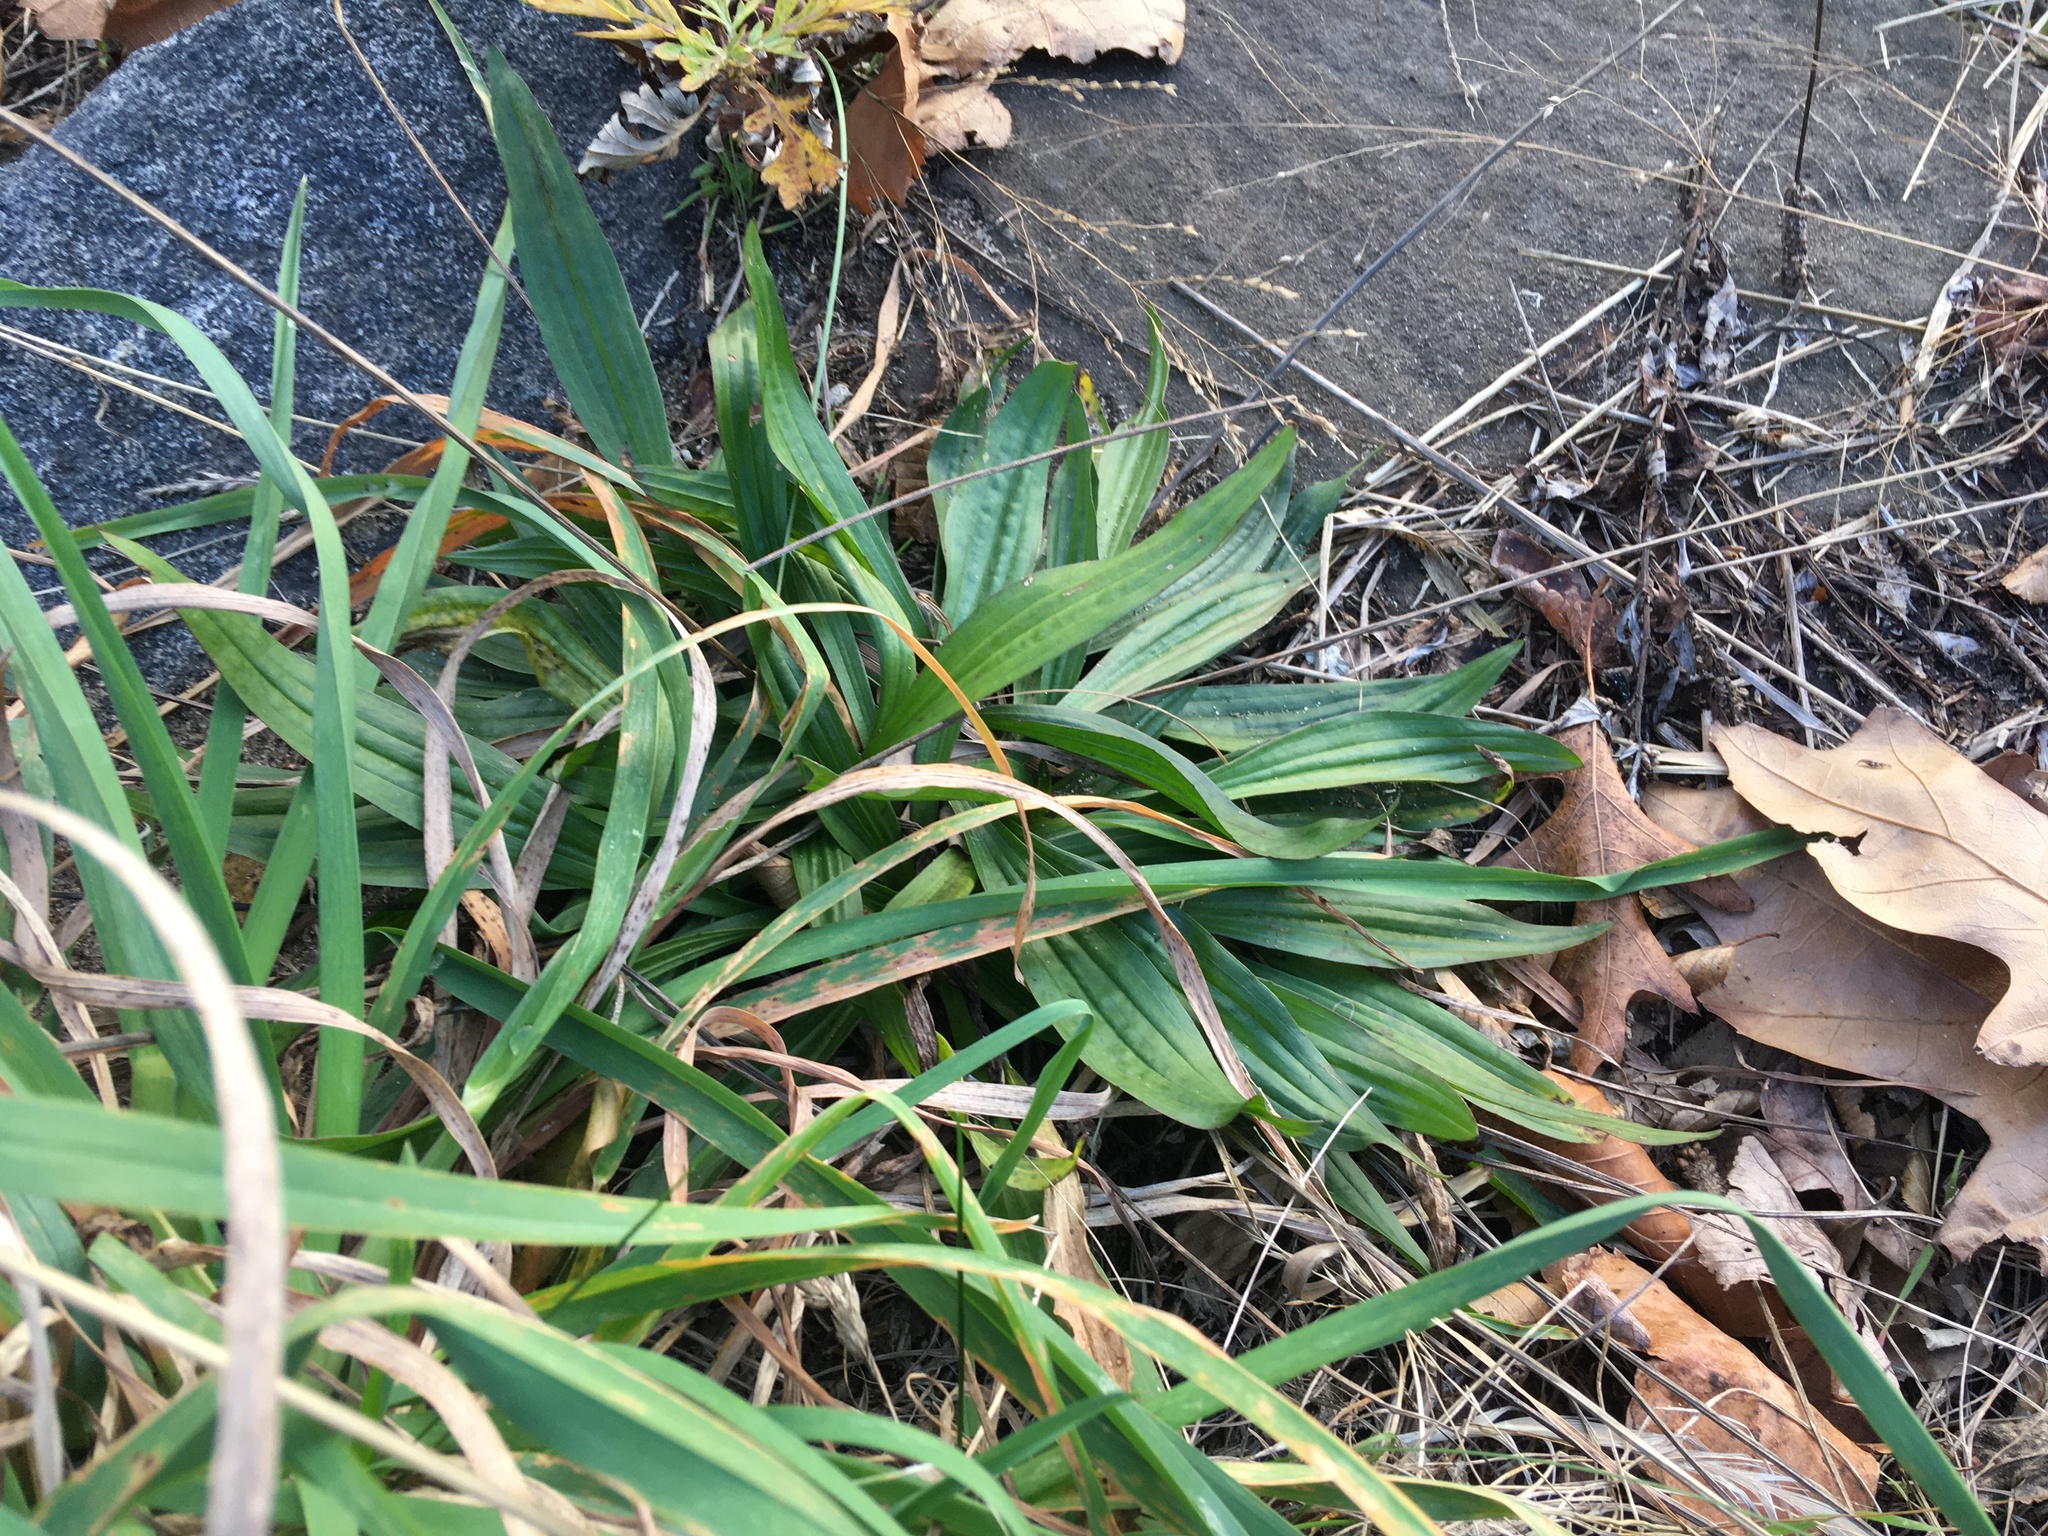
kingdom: Plantae
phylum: Tracheophyta
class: Magnoliopsida
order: Lamiales
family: Plantaginaceae
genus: Plantago
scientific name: Plantago lanceolata
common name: Ribwort plantain
